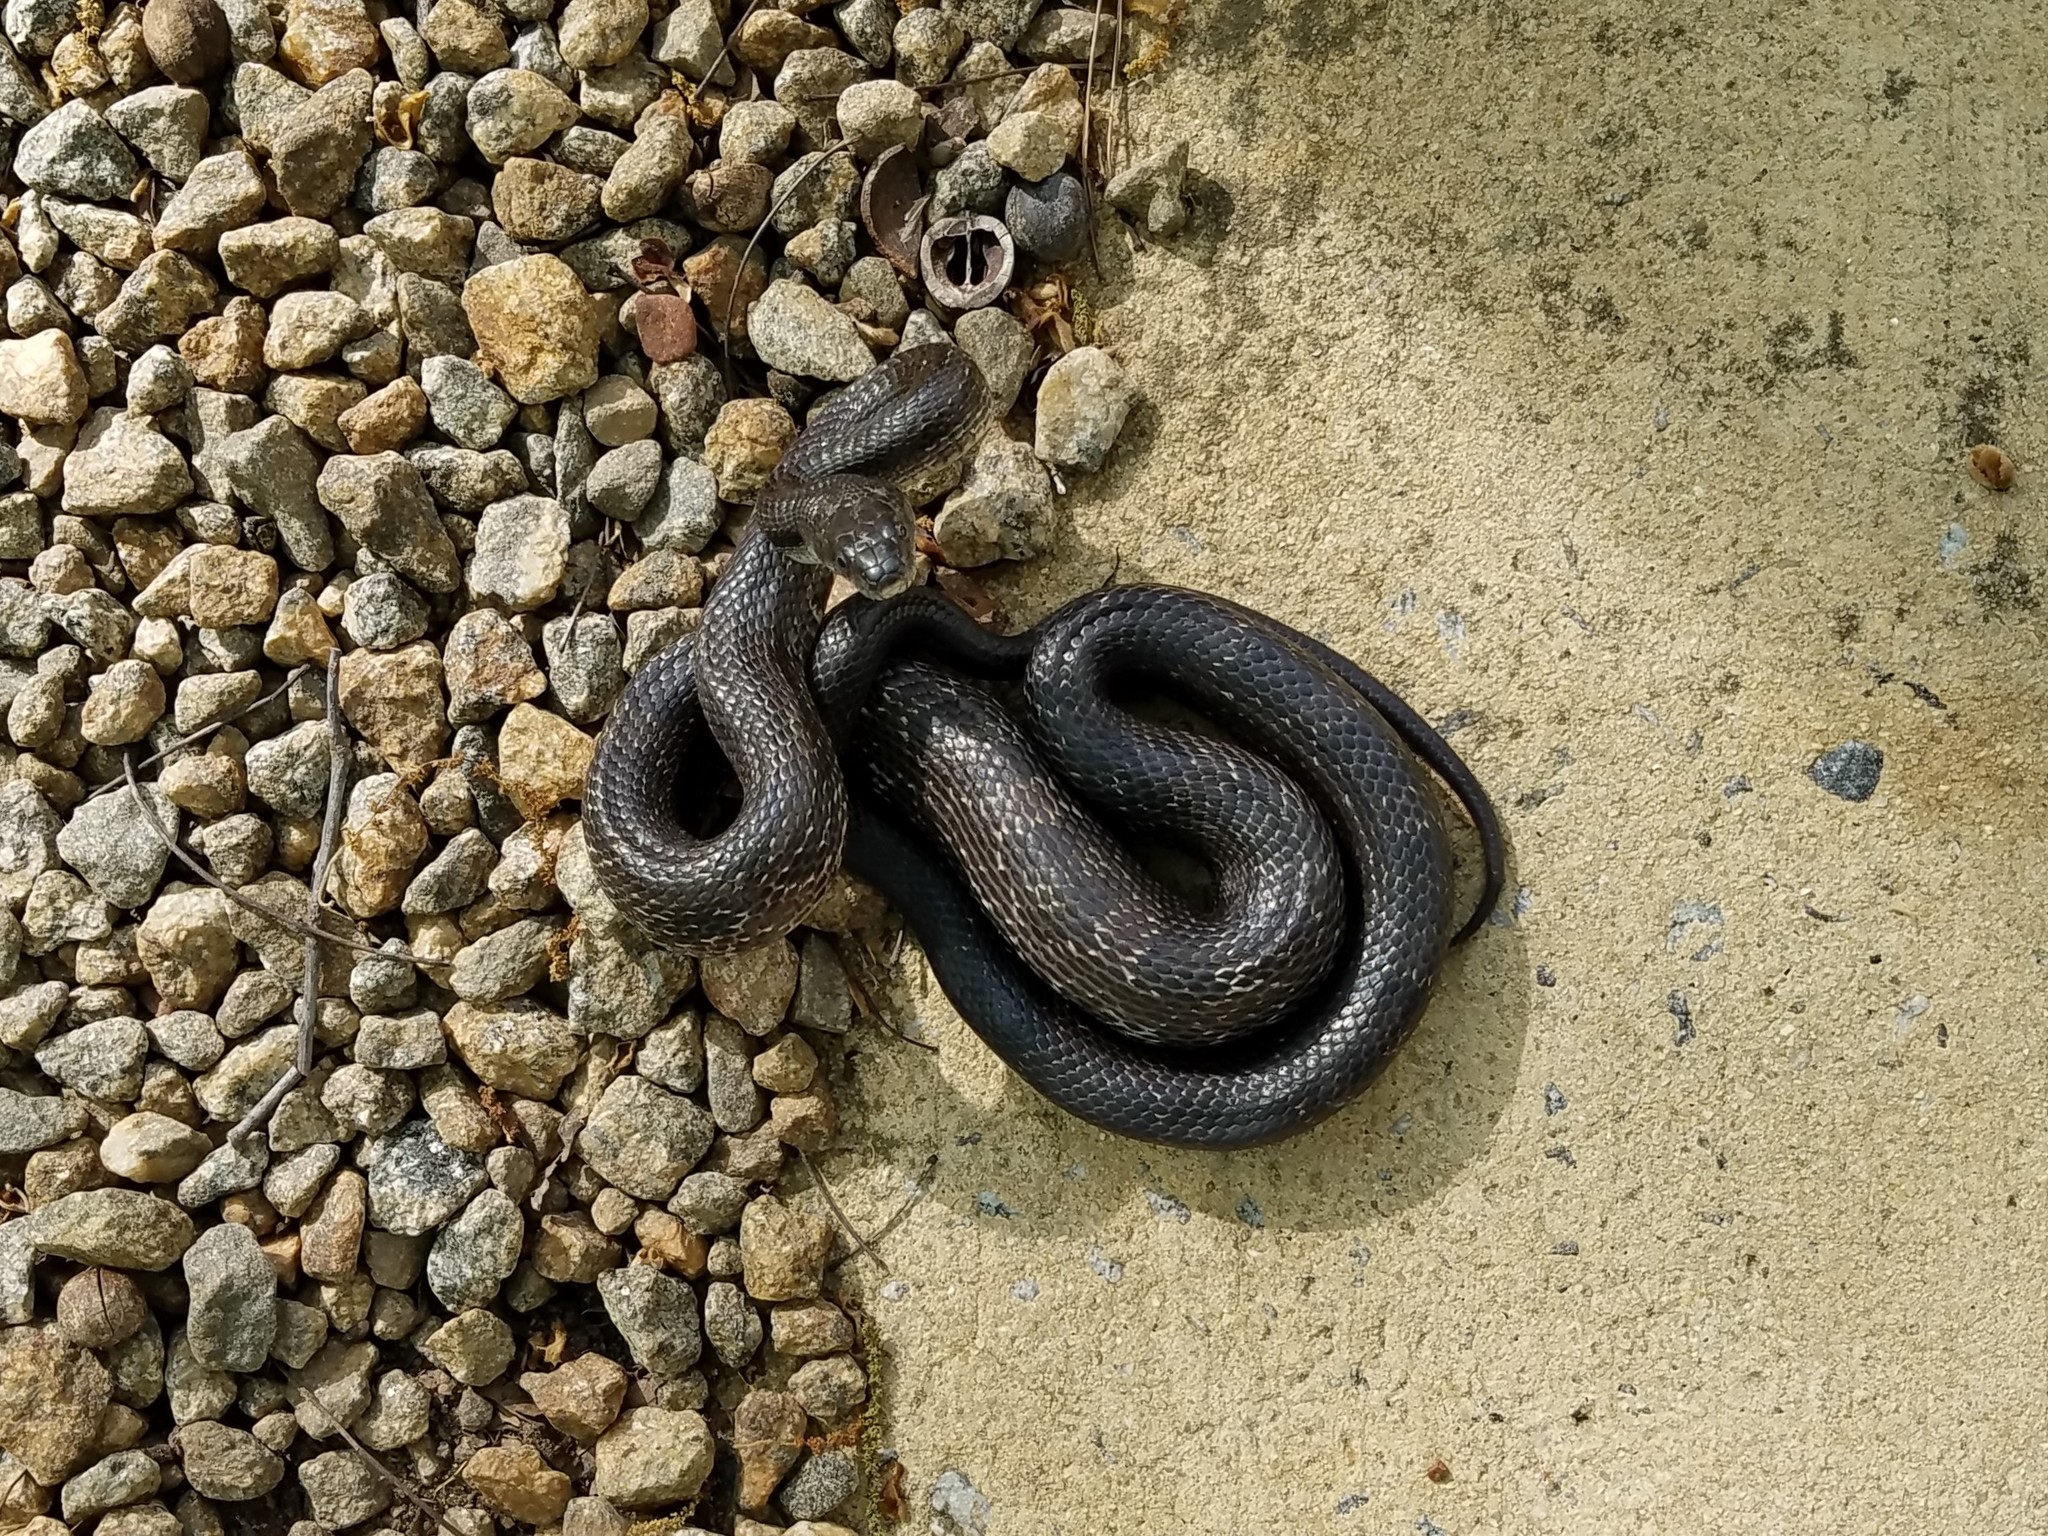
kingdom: Animalia
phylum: Chordata
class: Squamata
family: Colubridae
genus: Pantherophis
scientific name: Pantherophis alleghaniensis
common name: Eastern rat snake
